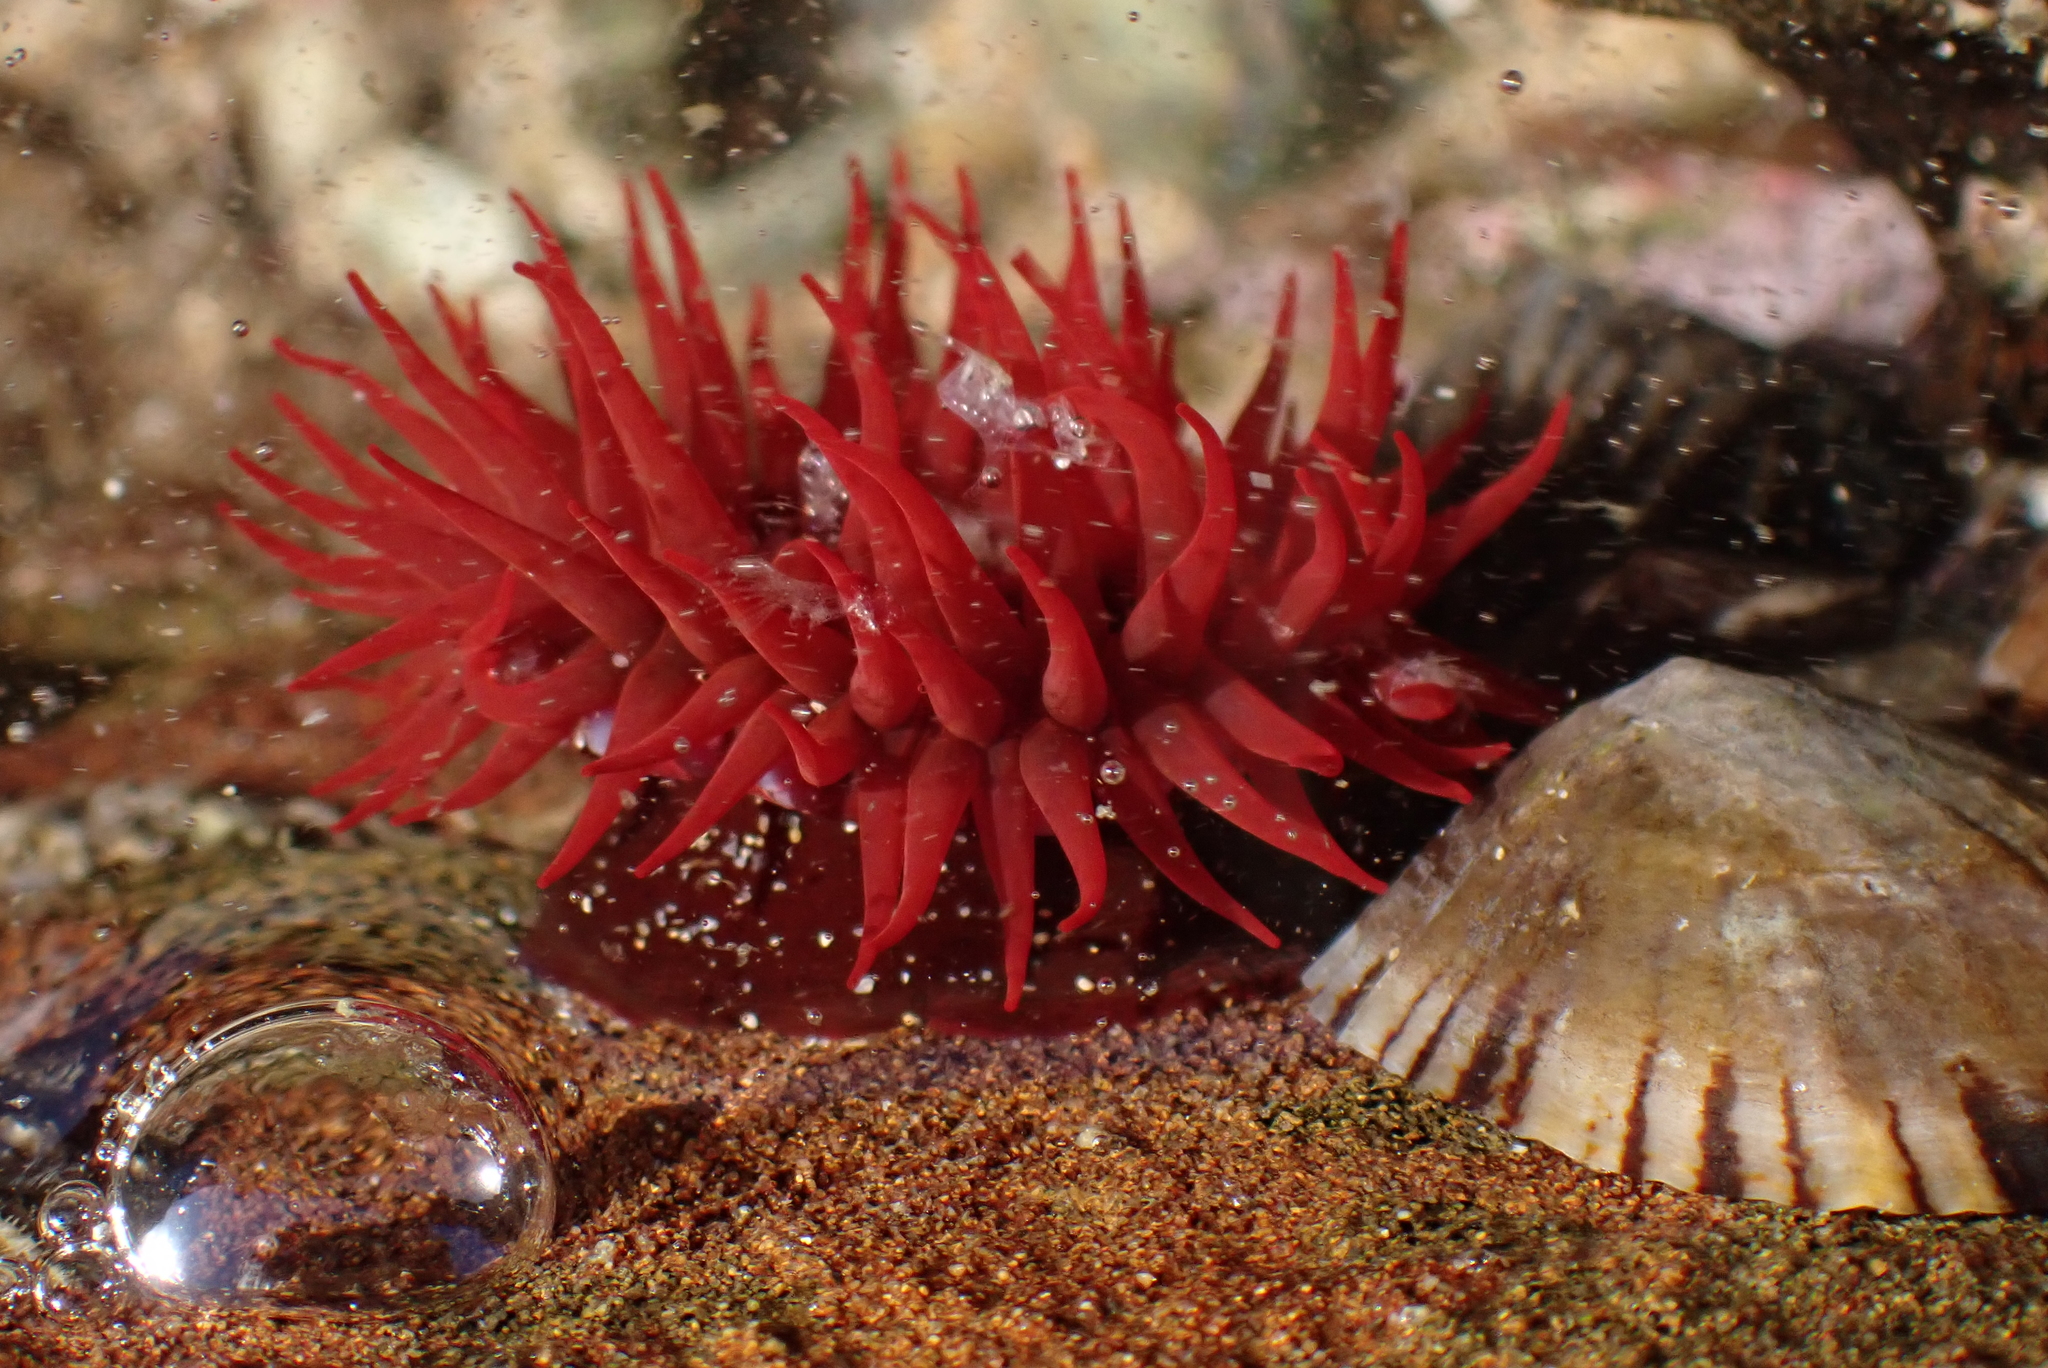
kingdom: Animalia
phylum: Cnidaria
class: Anthozoa
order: Actiniaria
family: Actiniidae
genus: Actinia
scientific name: Actinia tenebrosa
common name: Waratah anemone
